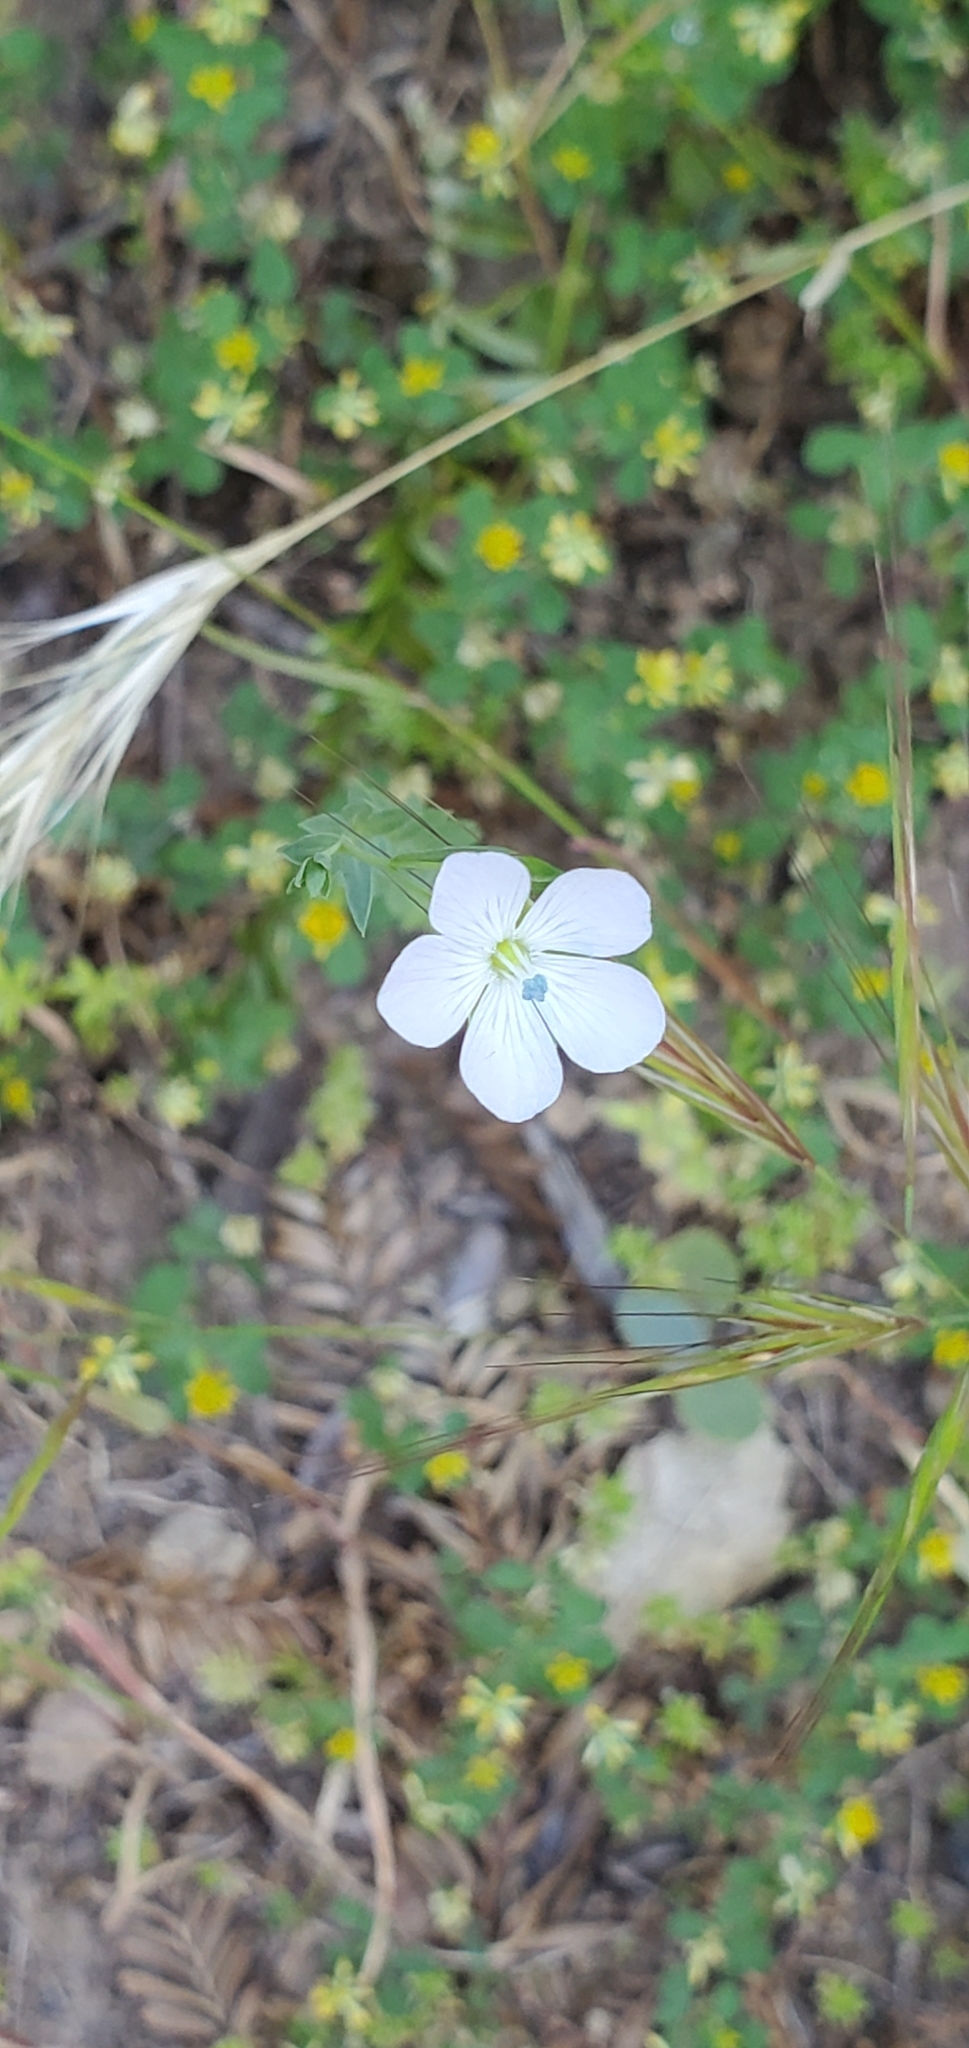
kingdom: Plantae
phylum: Tracheophyta
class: Magnoliopsida
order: Malpighiales
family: Linaceae
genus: Linum
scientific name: Linum bienne
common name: Pale flax
